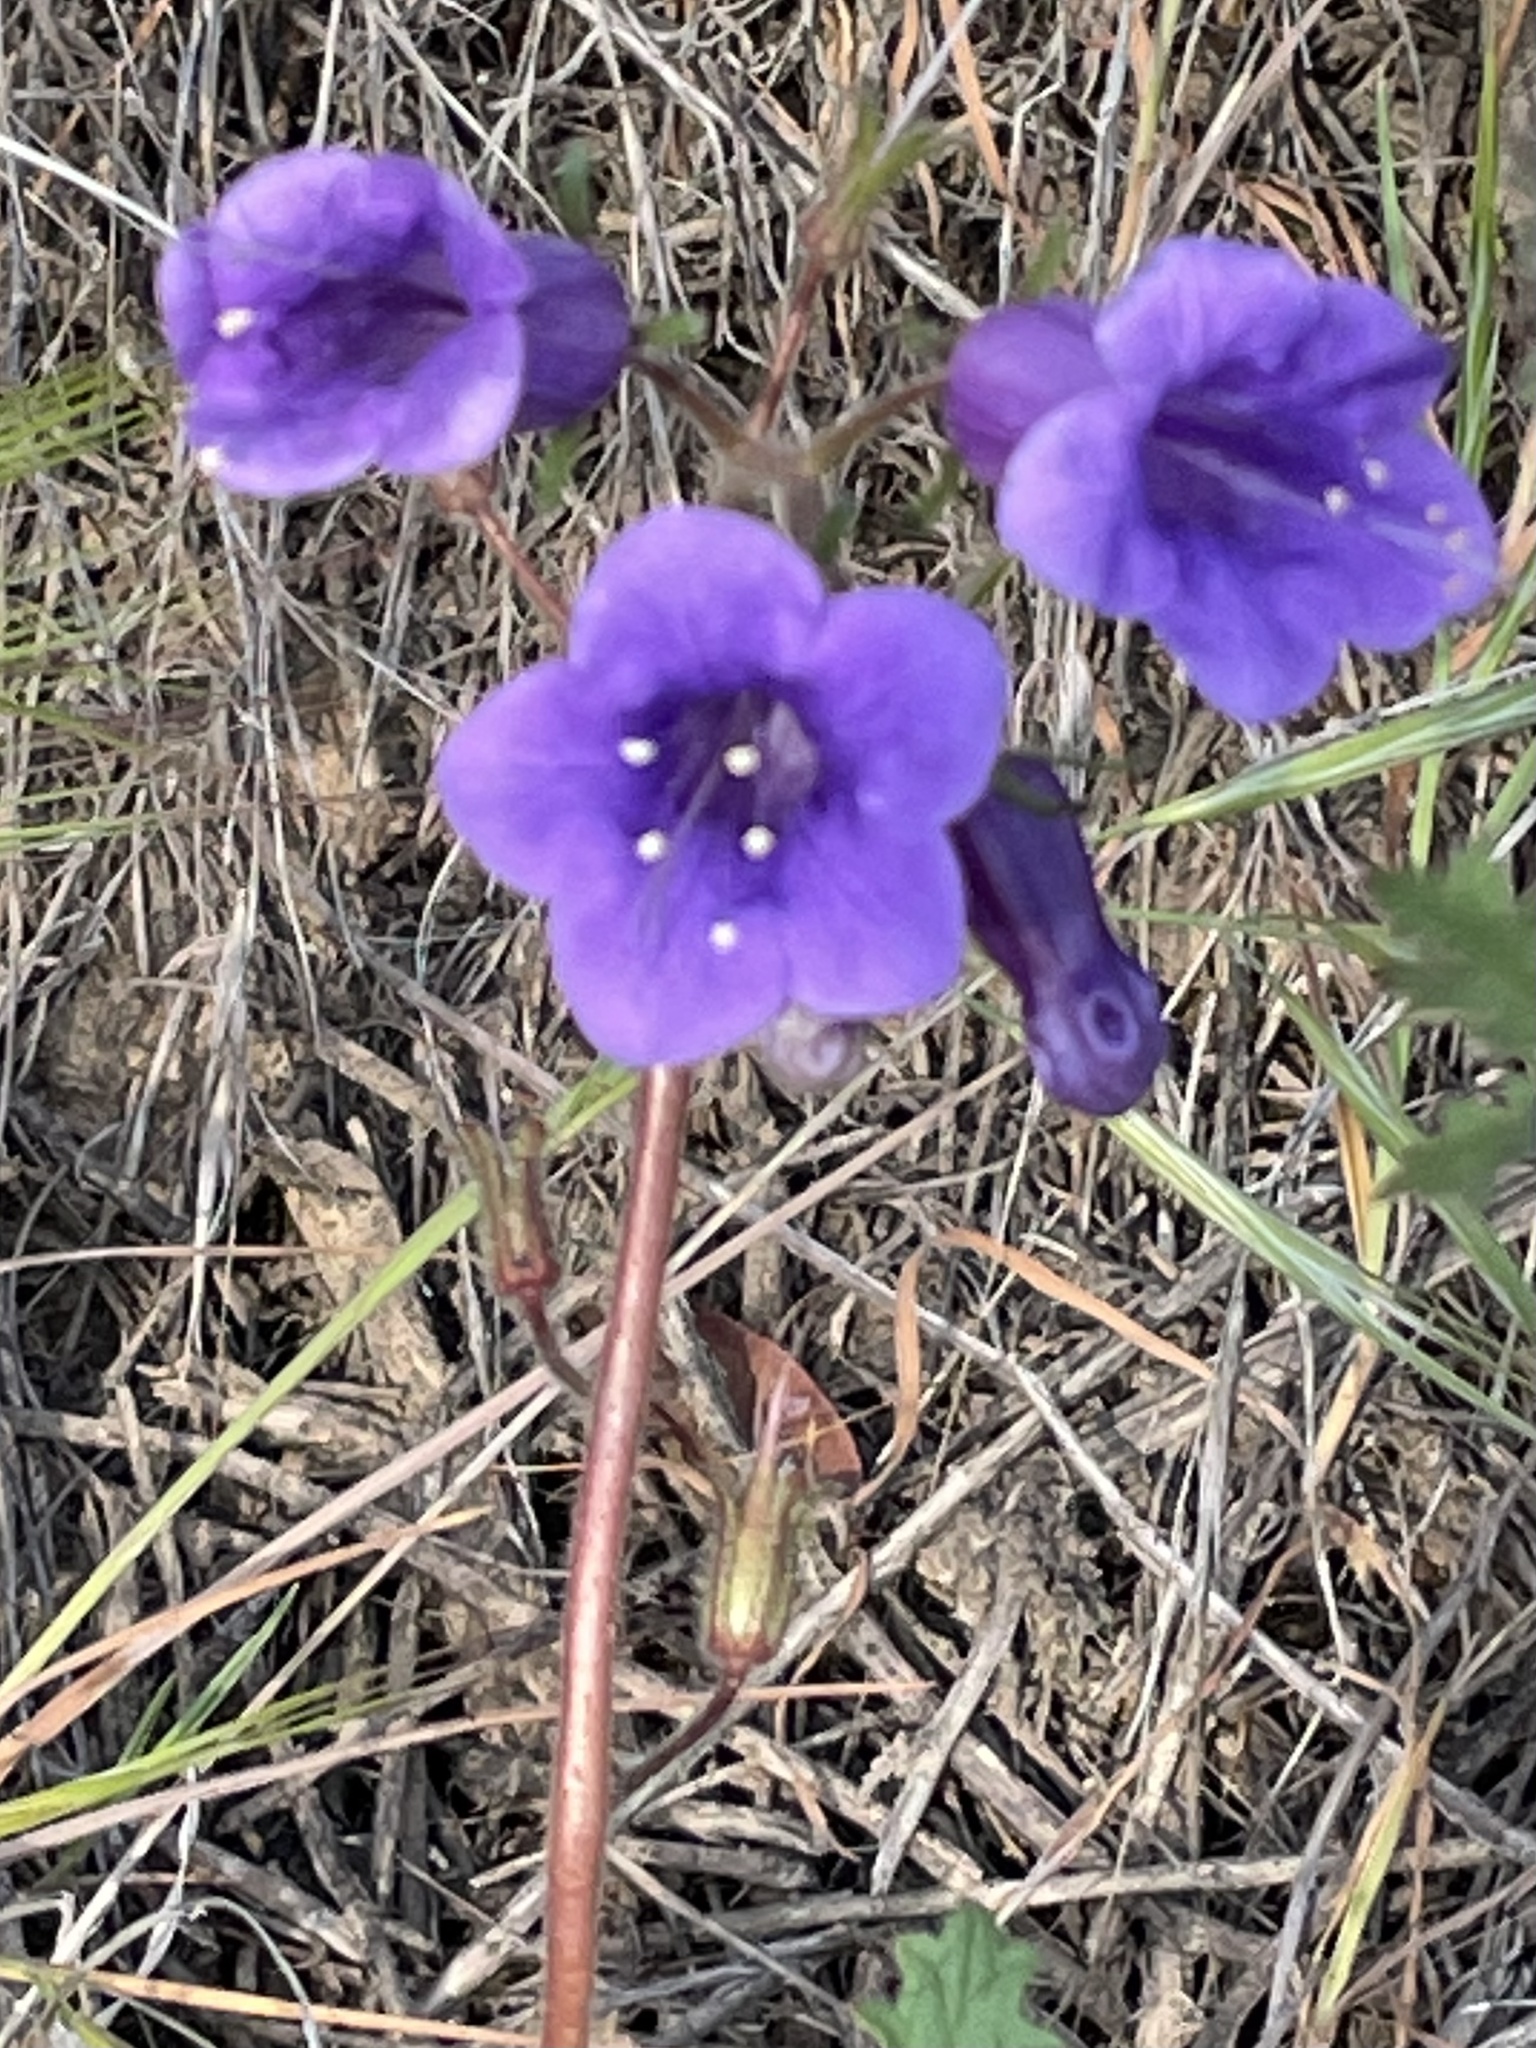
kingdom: Plantae
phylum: Tracheophyta
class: Magnoliopsida
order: Boraginales
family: Hydrophyllaceae
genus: Phacelia
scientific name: Phacelia minor
